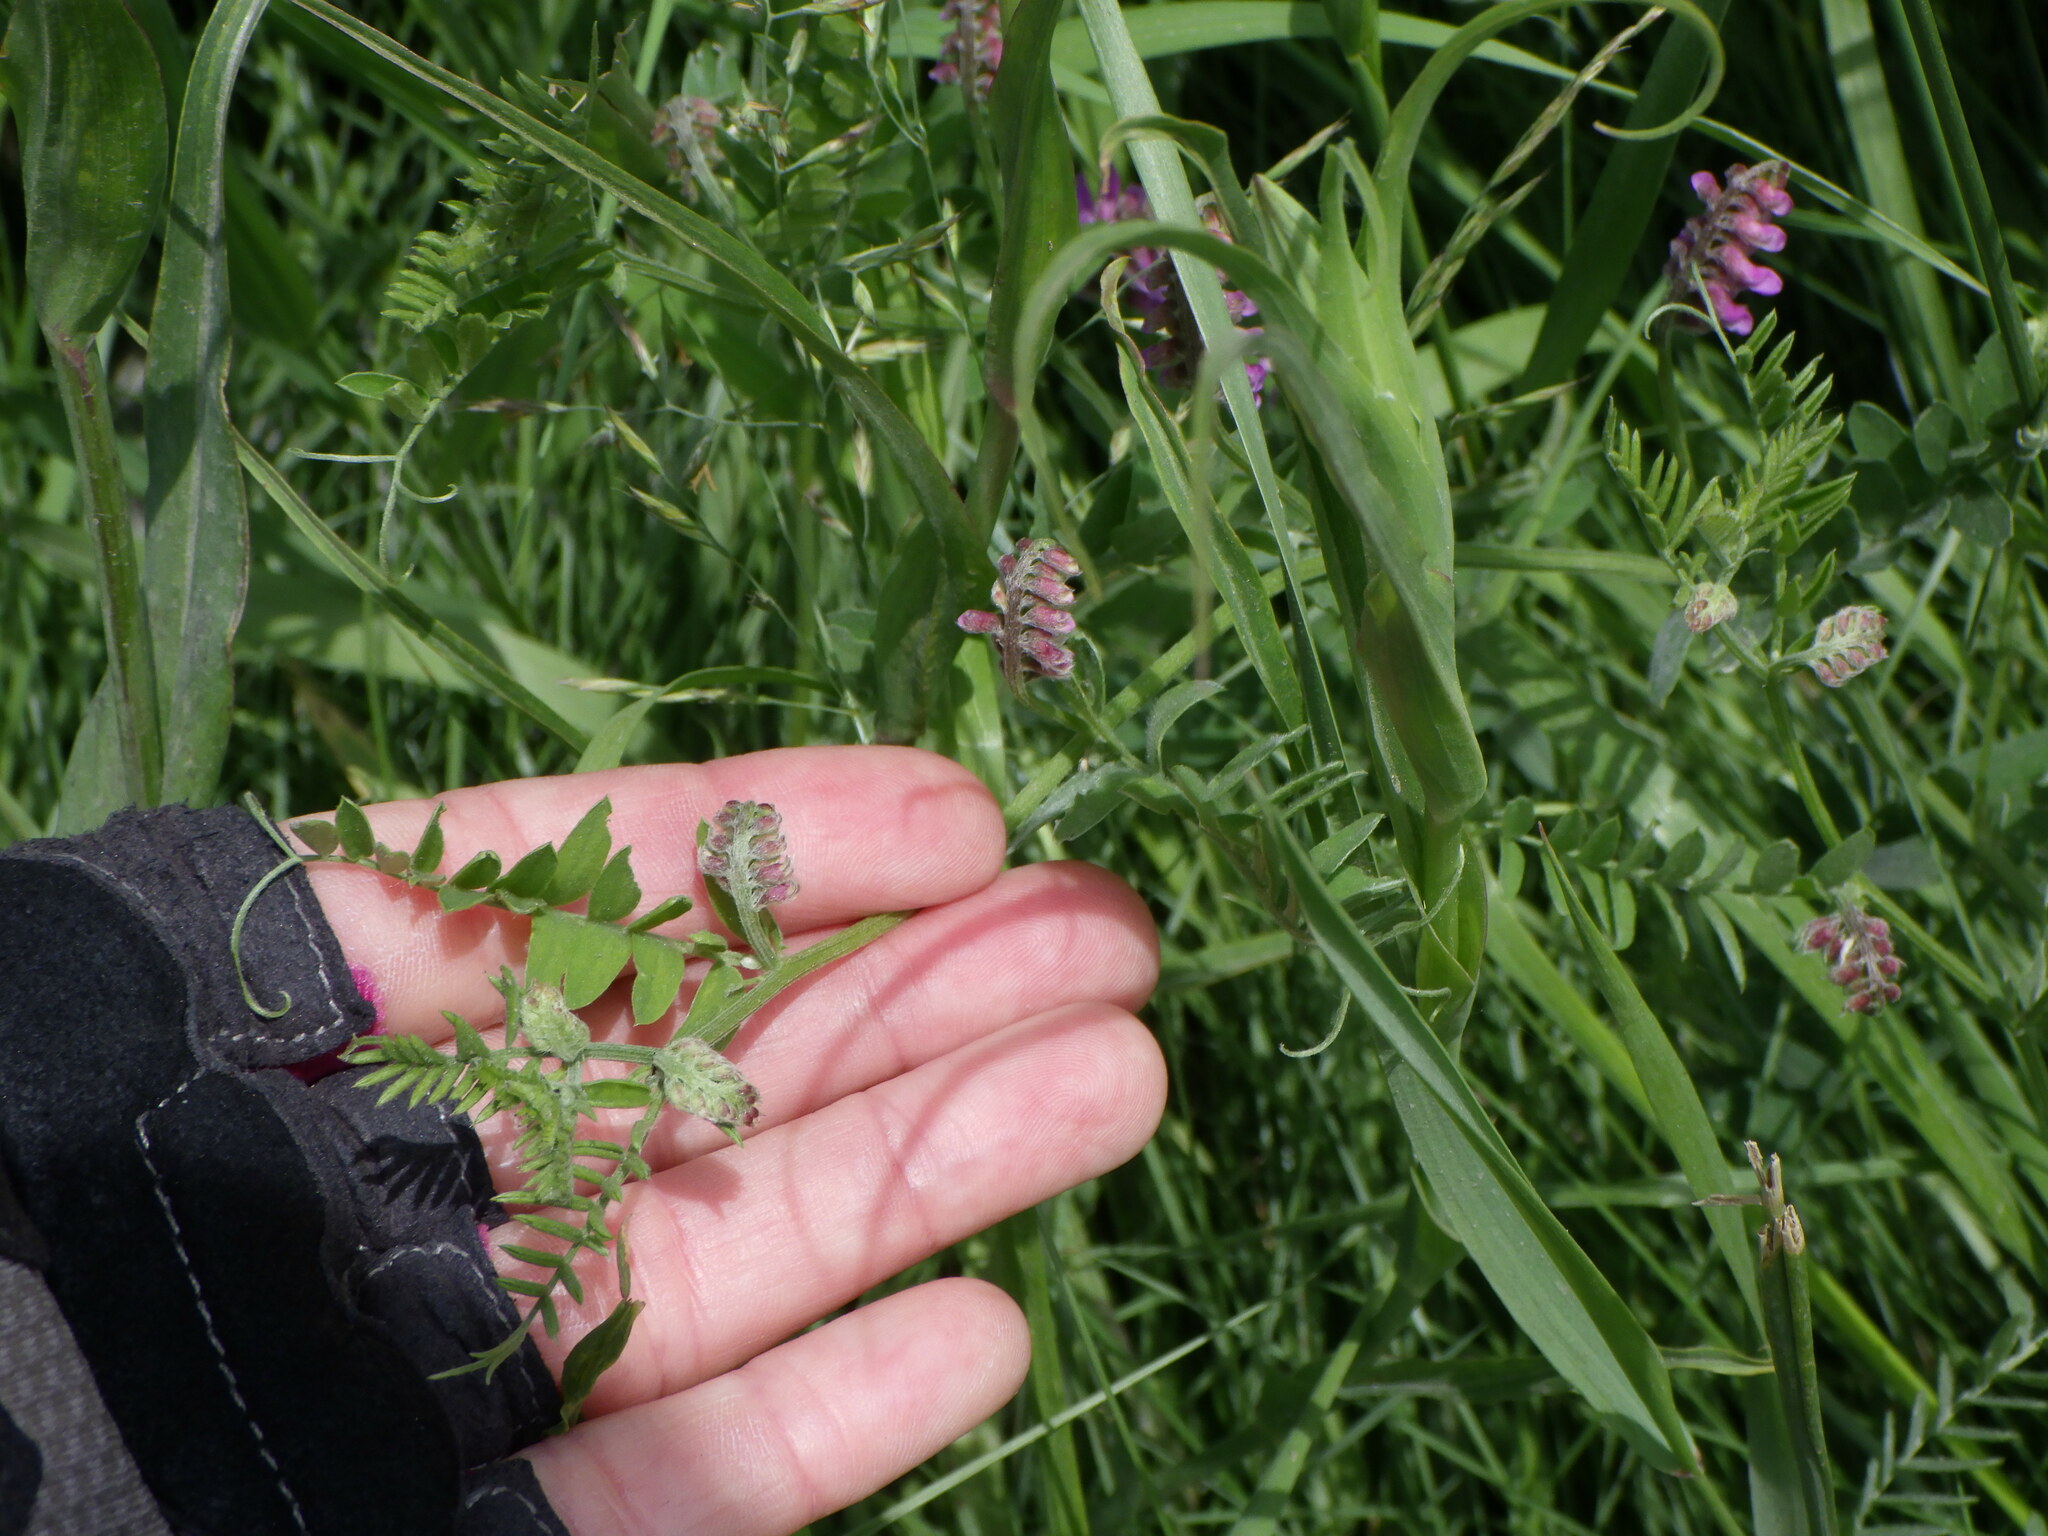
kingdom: Plantae
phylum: Tracheophyta
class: Magnoliopsida
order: Fabales
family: Fabaceae
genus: Vicia
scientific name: Vicia cracca
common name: Bird vetch
